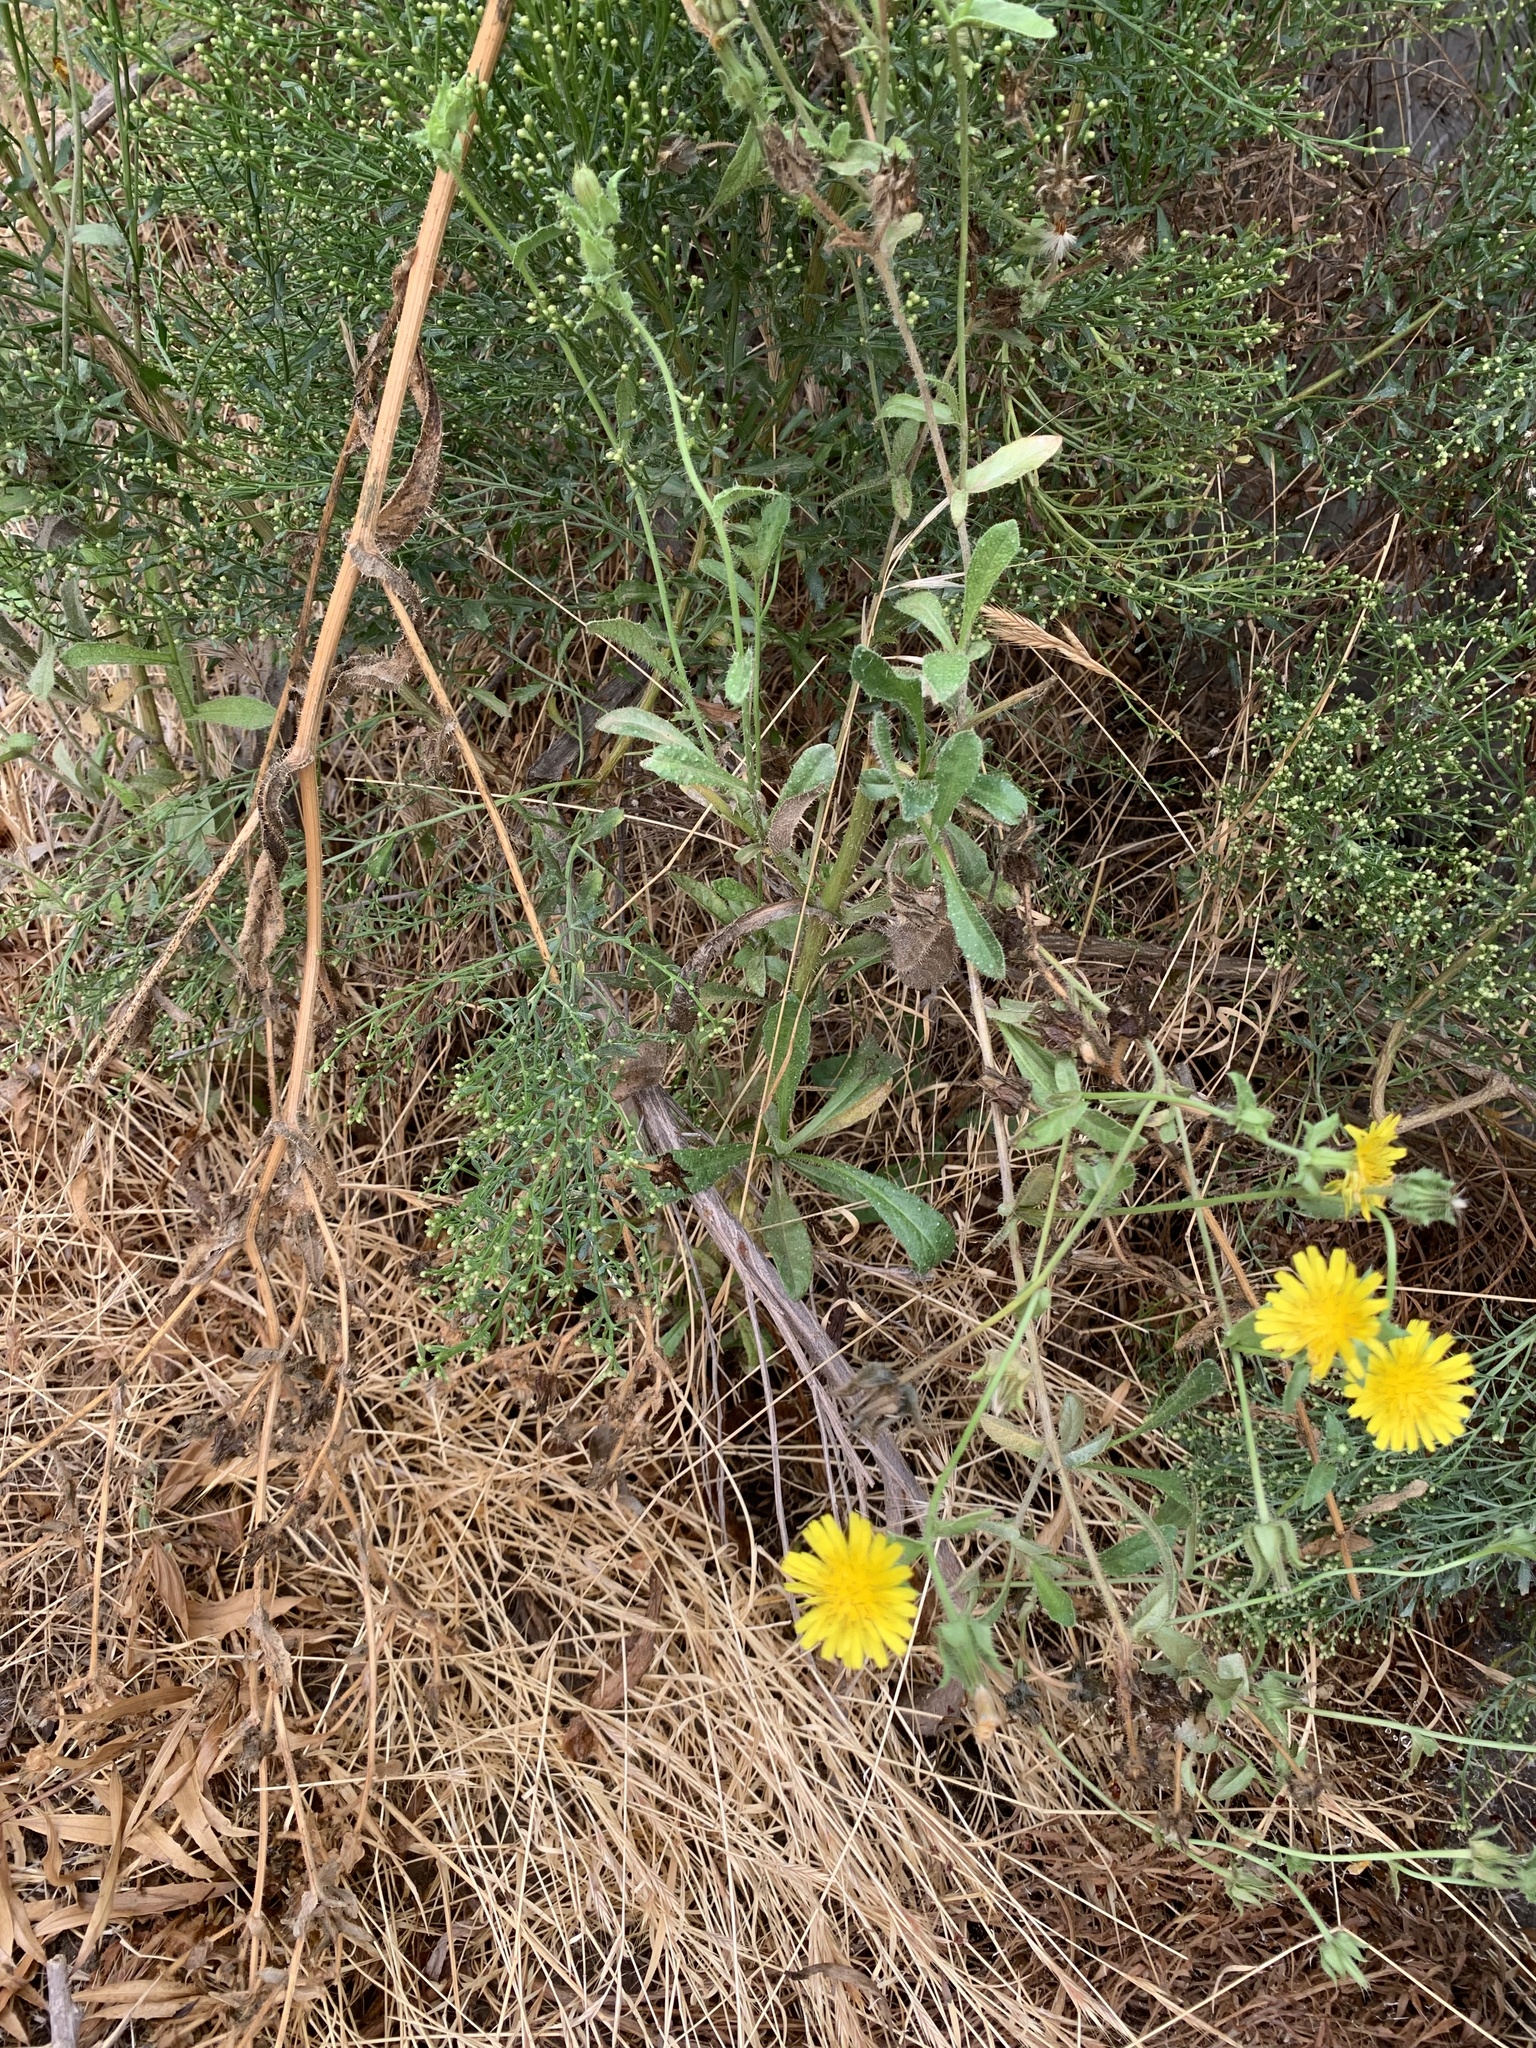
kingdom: Plantae
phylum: Tracheophyta
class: Magnoliopsida
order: Asterales
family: Asteraceae
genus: Helminthotheca
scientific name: Helminthotheca echioides
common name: Ox-tongue
